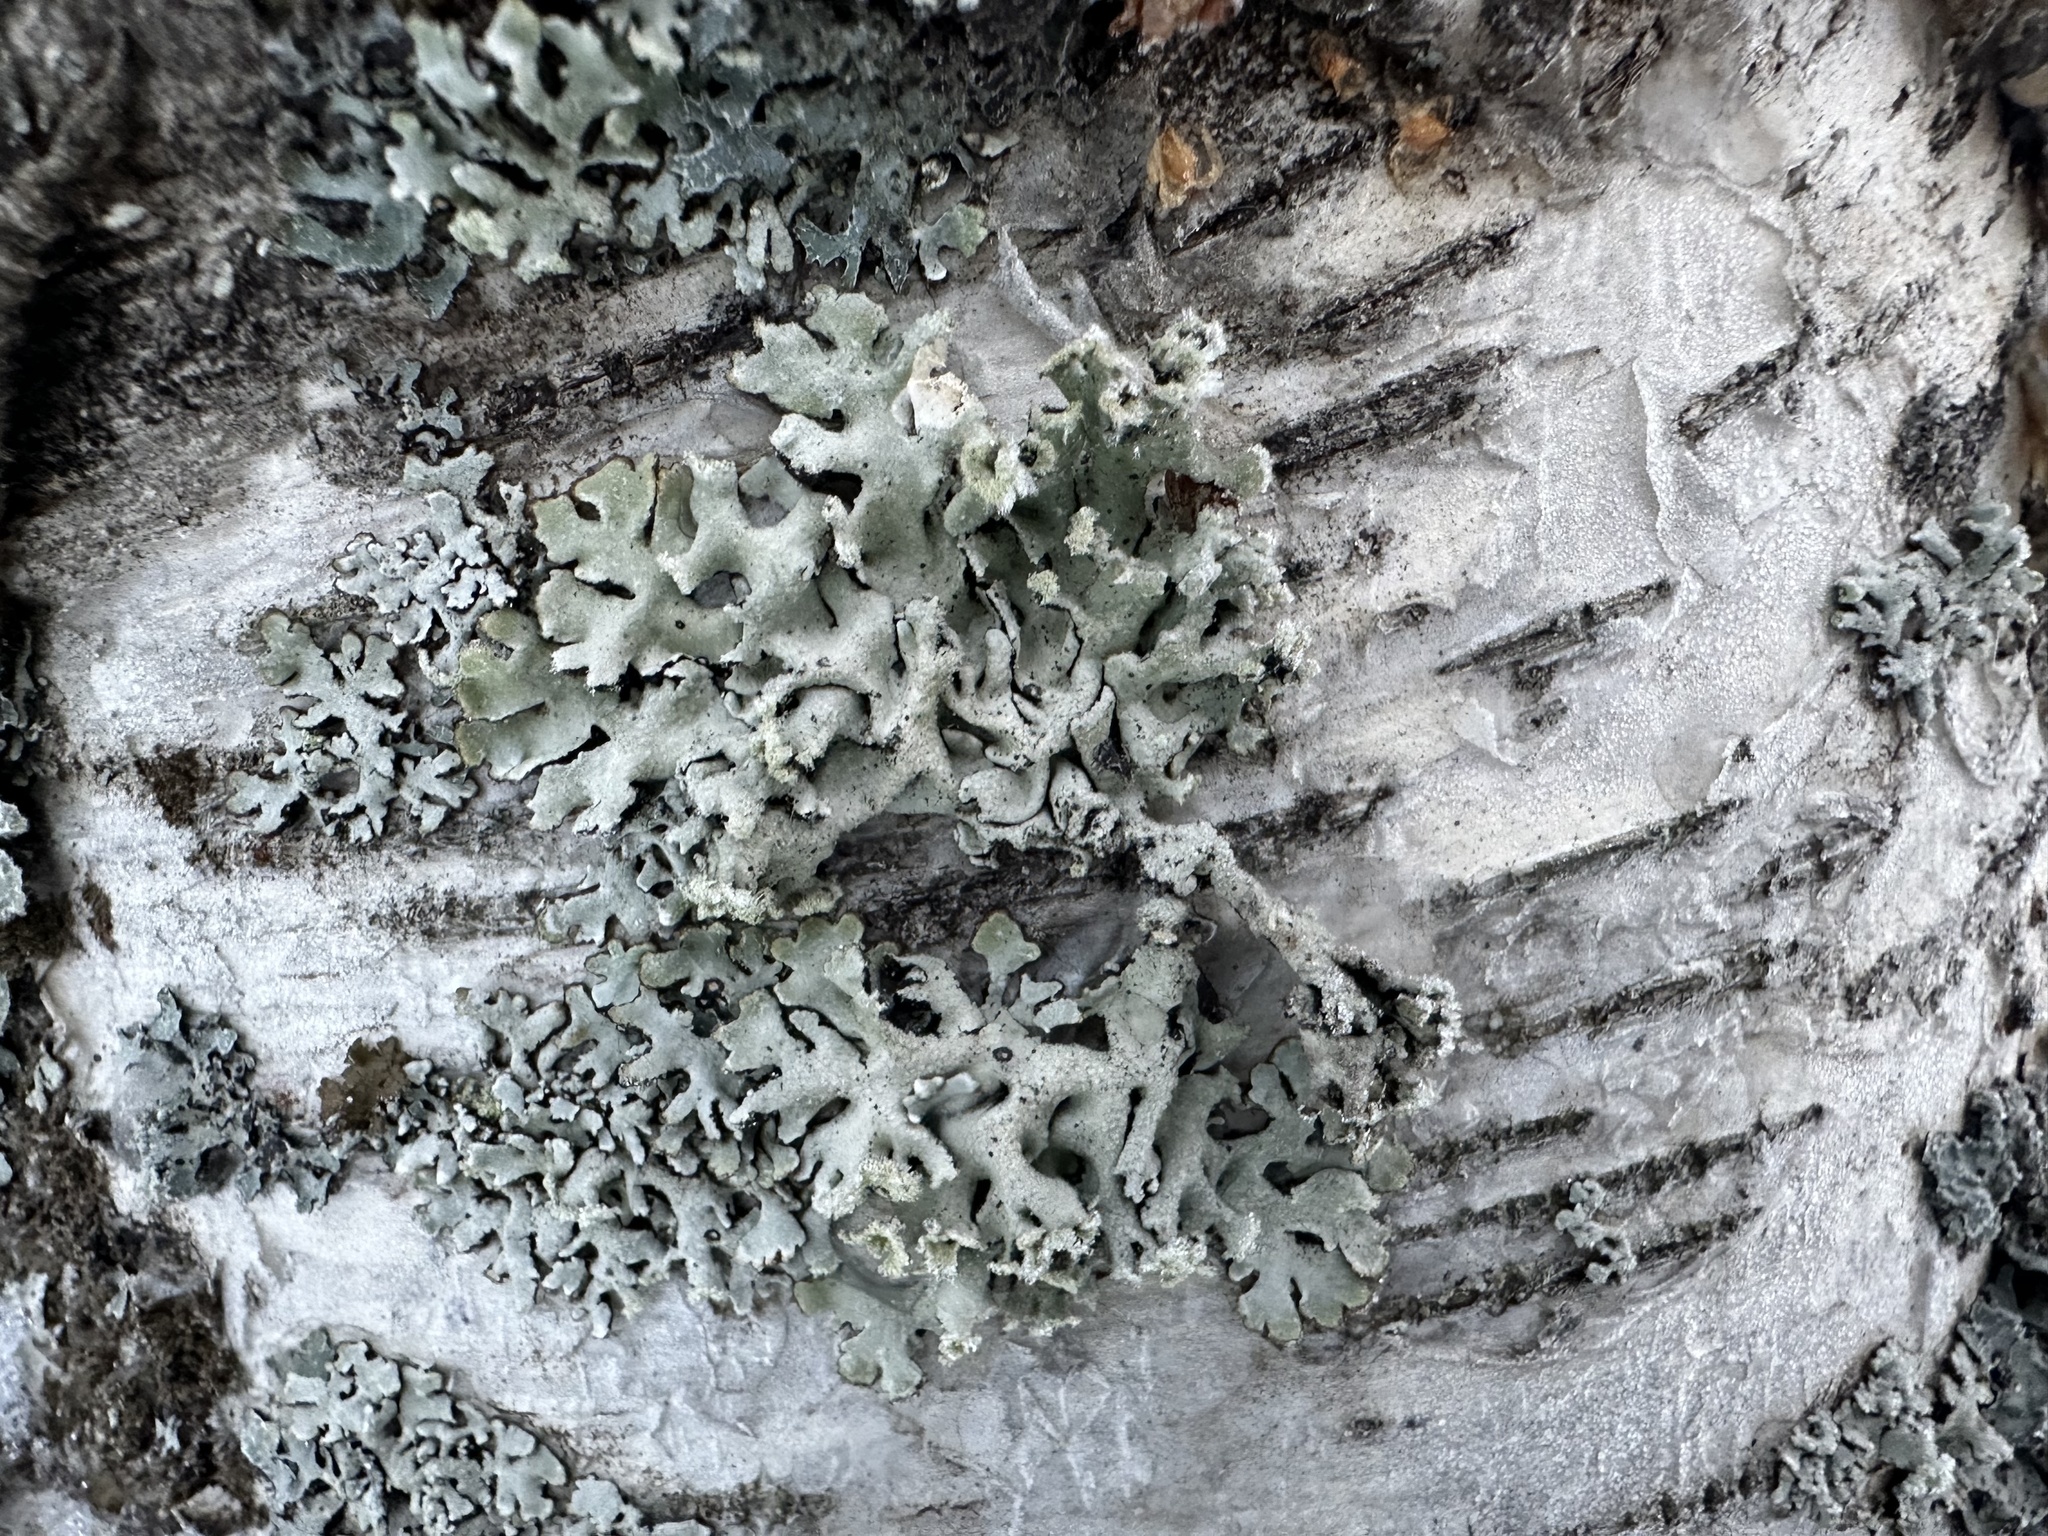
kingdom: Fungi
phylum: Ascomycota
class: Lecanoromycetes
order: Lecanorales
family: Parmeliaceae
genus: Hypogymnia
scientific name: Hypogymnia physodes
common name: Dark crottle
